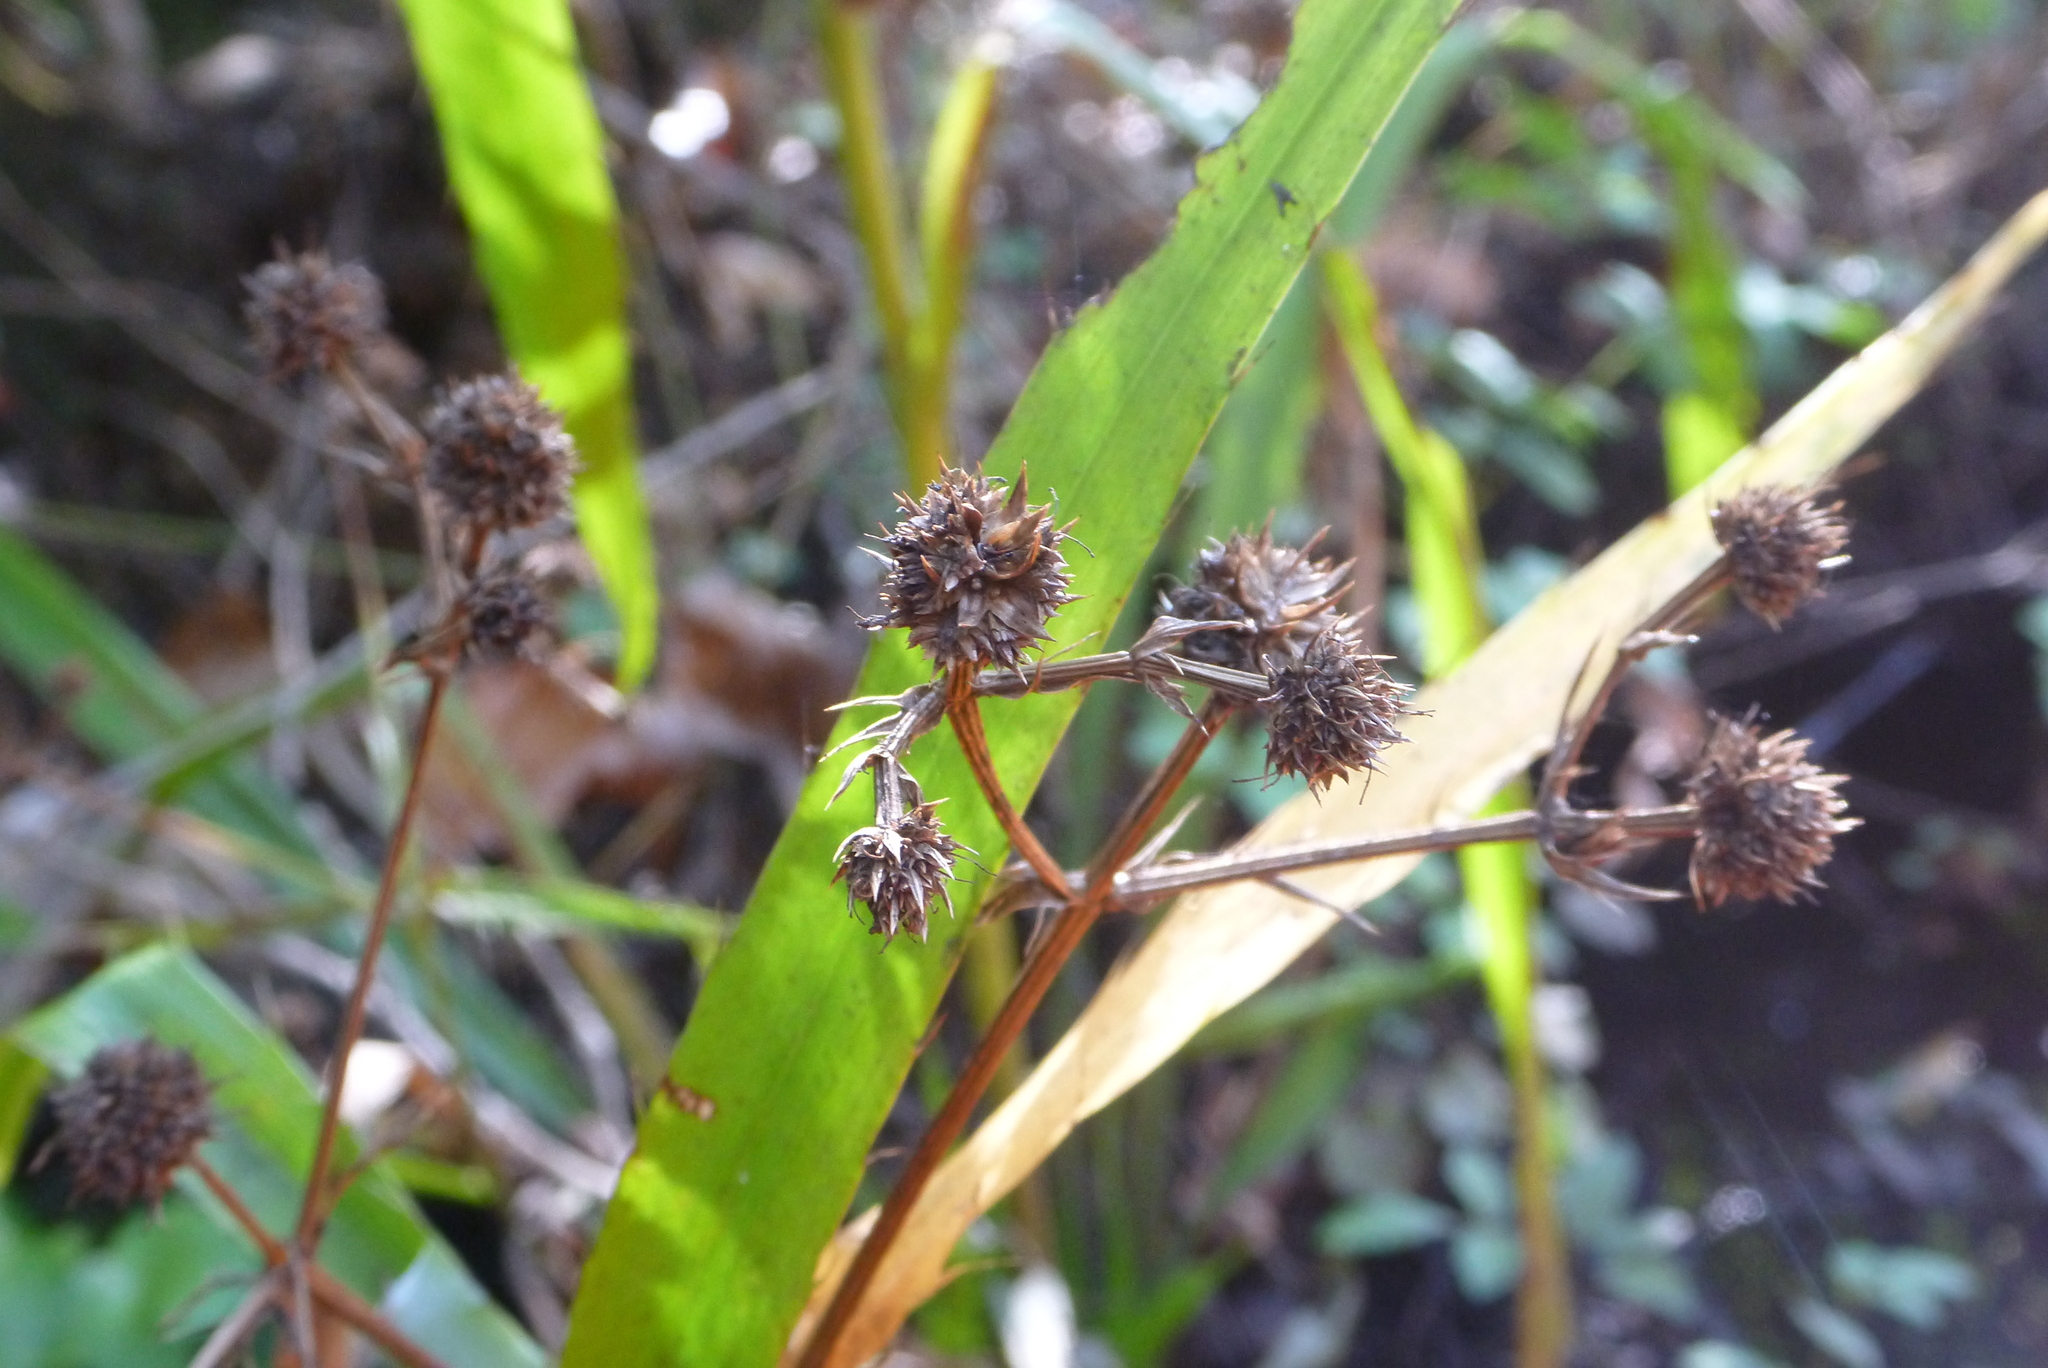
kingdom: Plantae
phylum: Tracheophyta
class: Magnoliopsida
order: Apiales
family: Apiaceae
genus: Eryngium
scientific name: Eryngium yuccifolium
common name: Button eryngo
